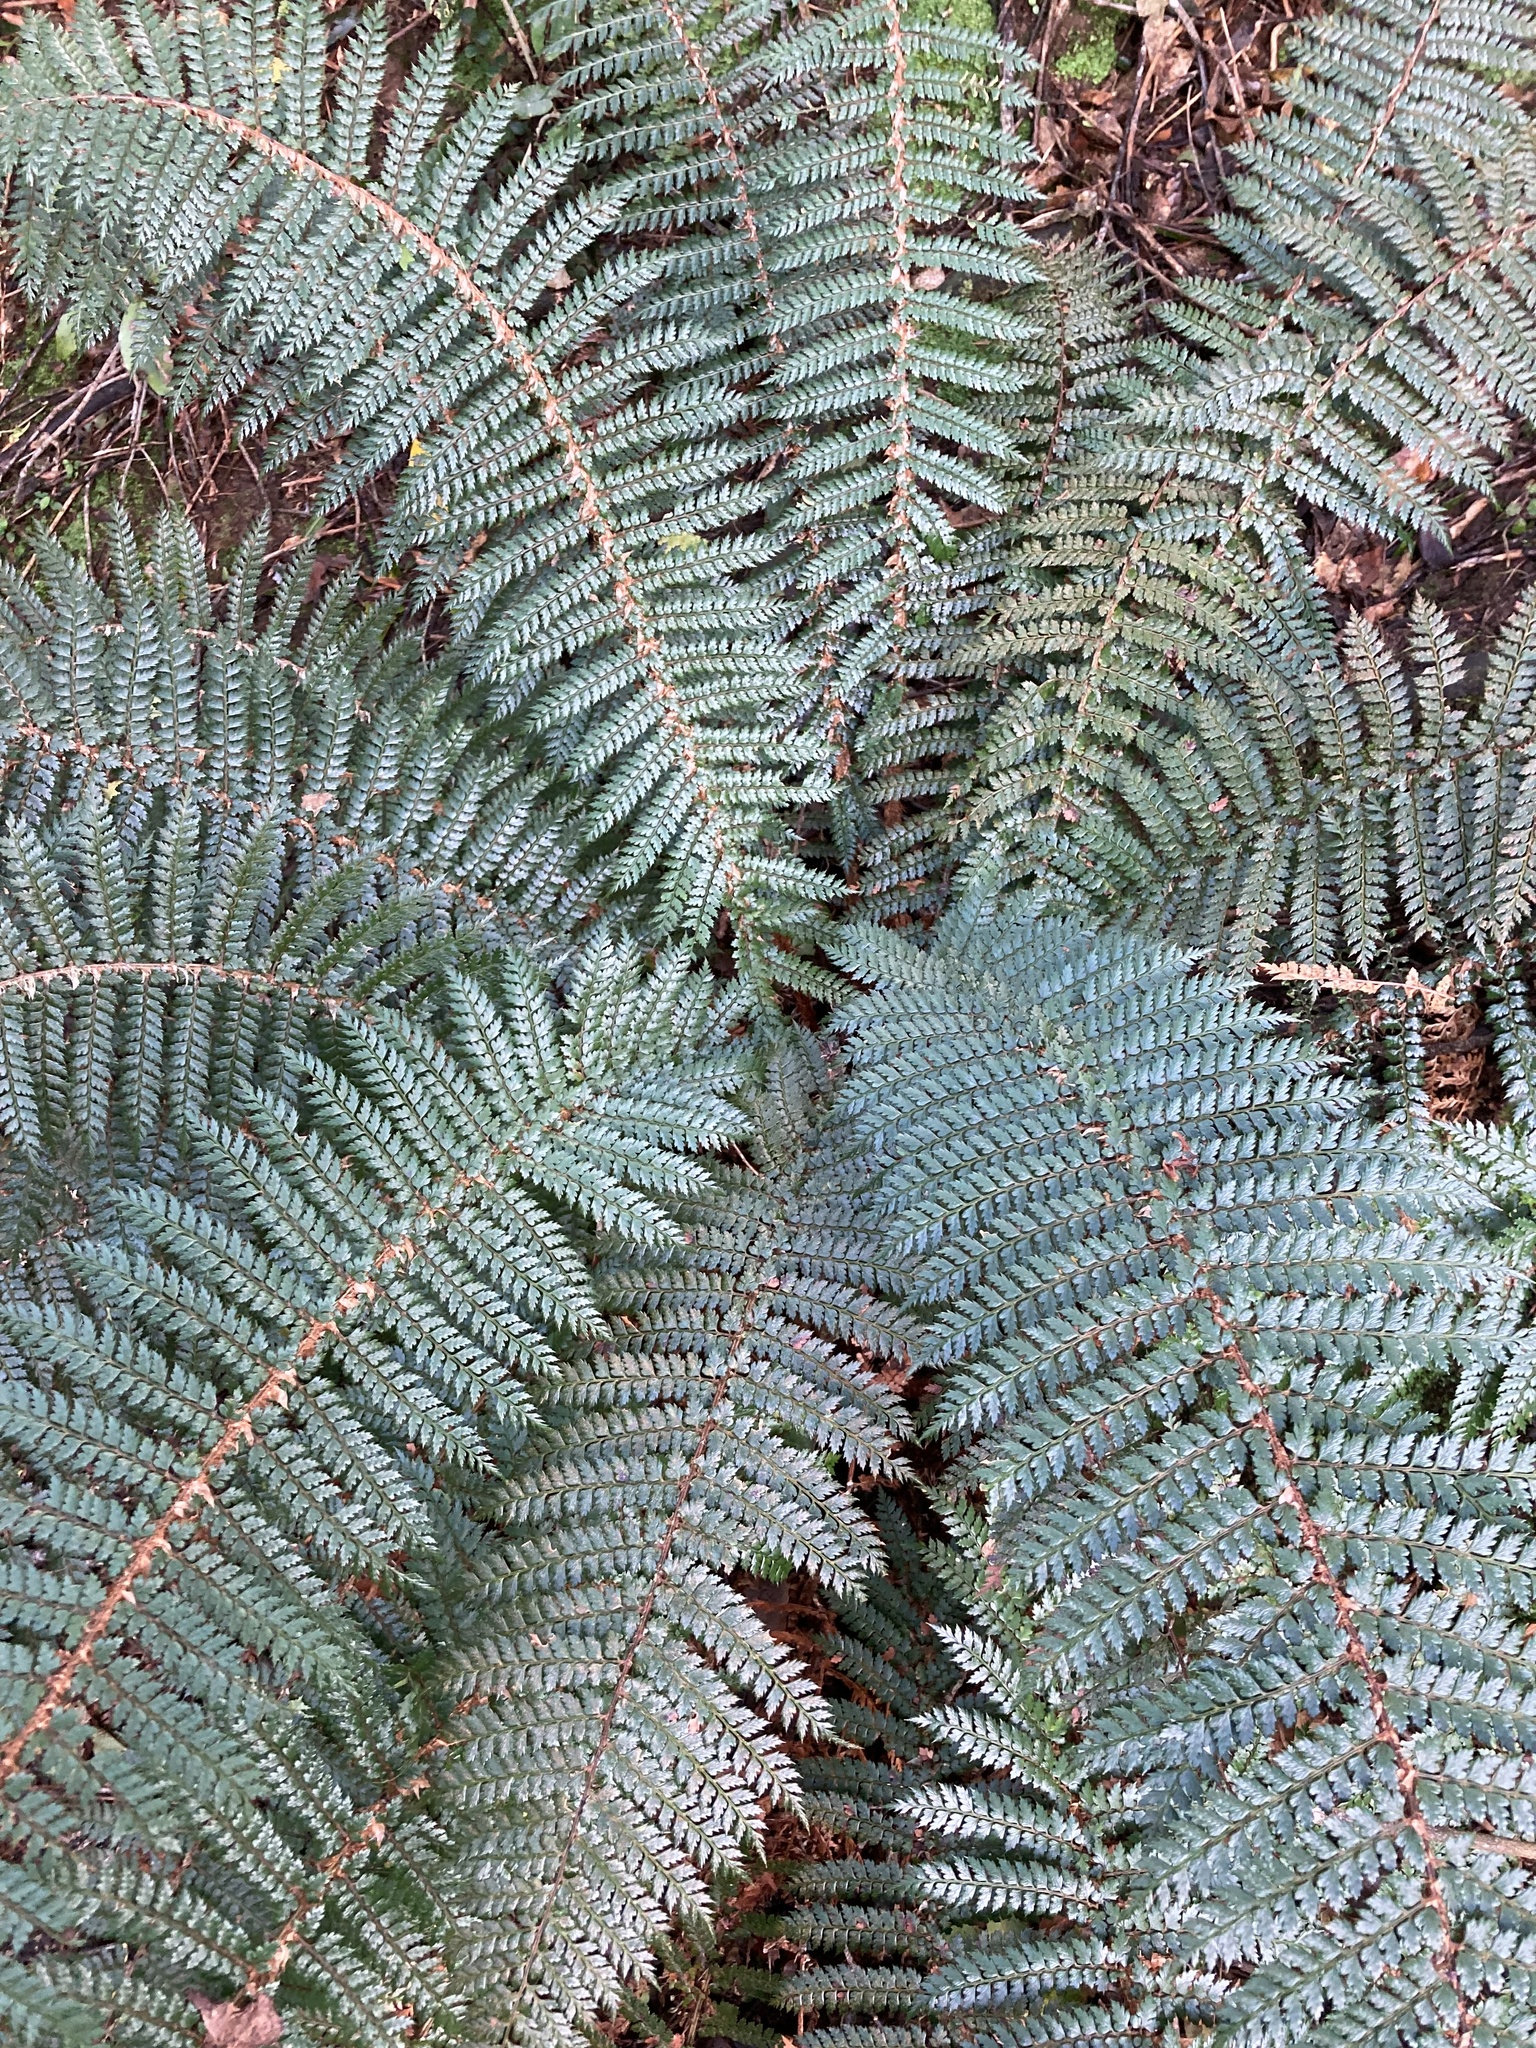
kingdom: Plantae
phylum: Tracheophyta
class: Polypodiopsida
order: Polypodiales
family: Dryopteridaceae
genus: Polystichum
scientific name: Polystichum vestitum
